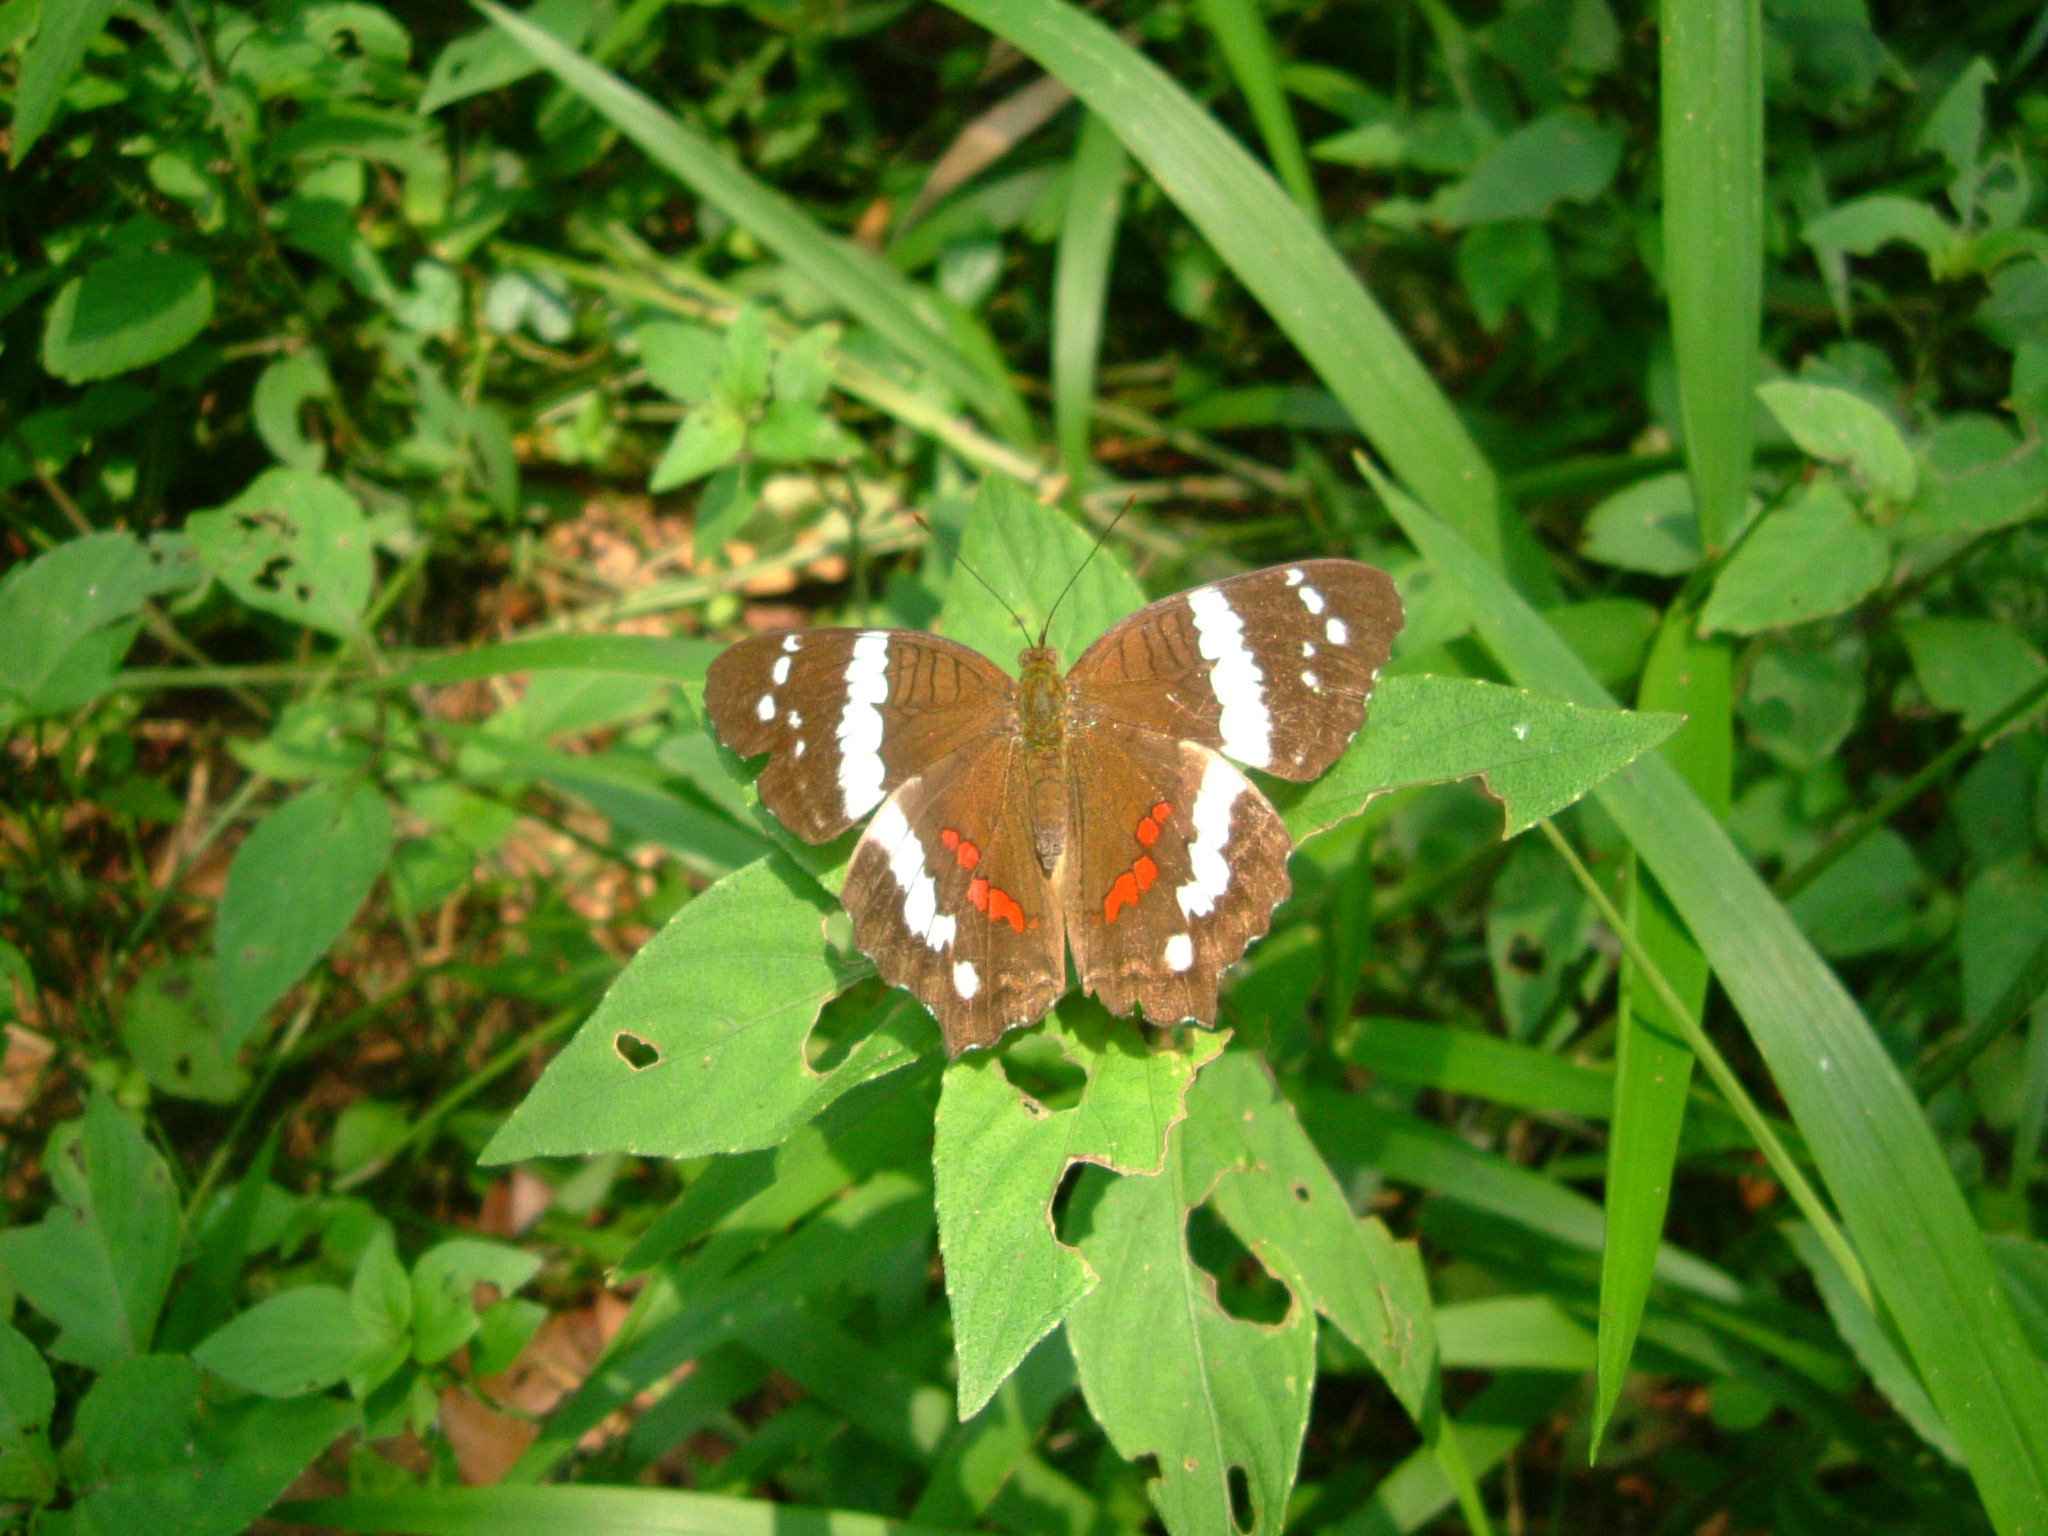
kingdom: Animalia
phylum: Arthropoda
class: Insecta
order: Lepidoptera
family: Nymphalidae
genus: Anartia
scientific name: Anartia fatima
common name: Banded peacock
